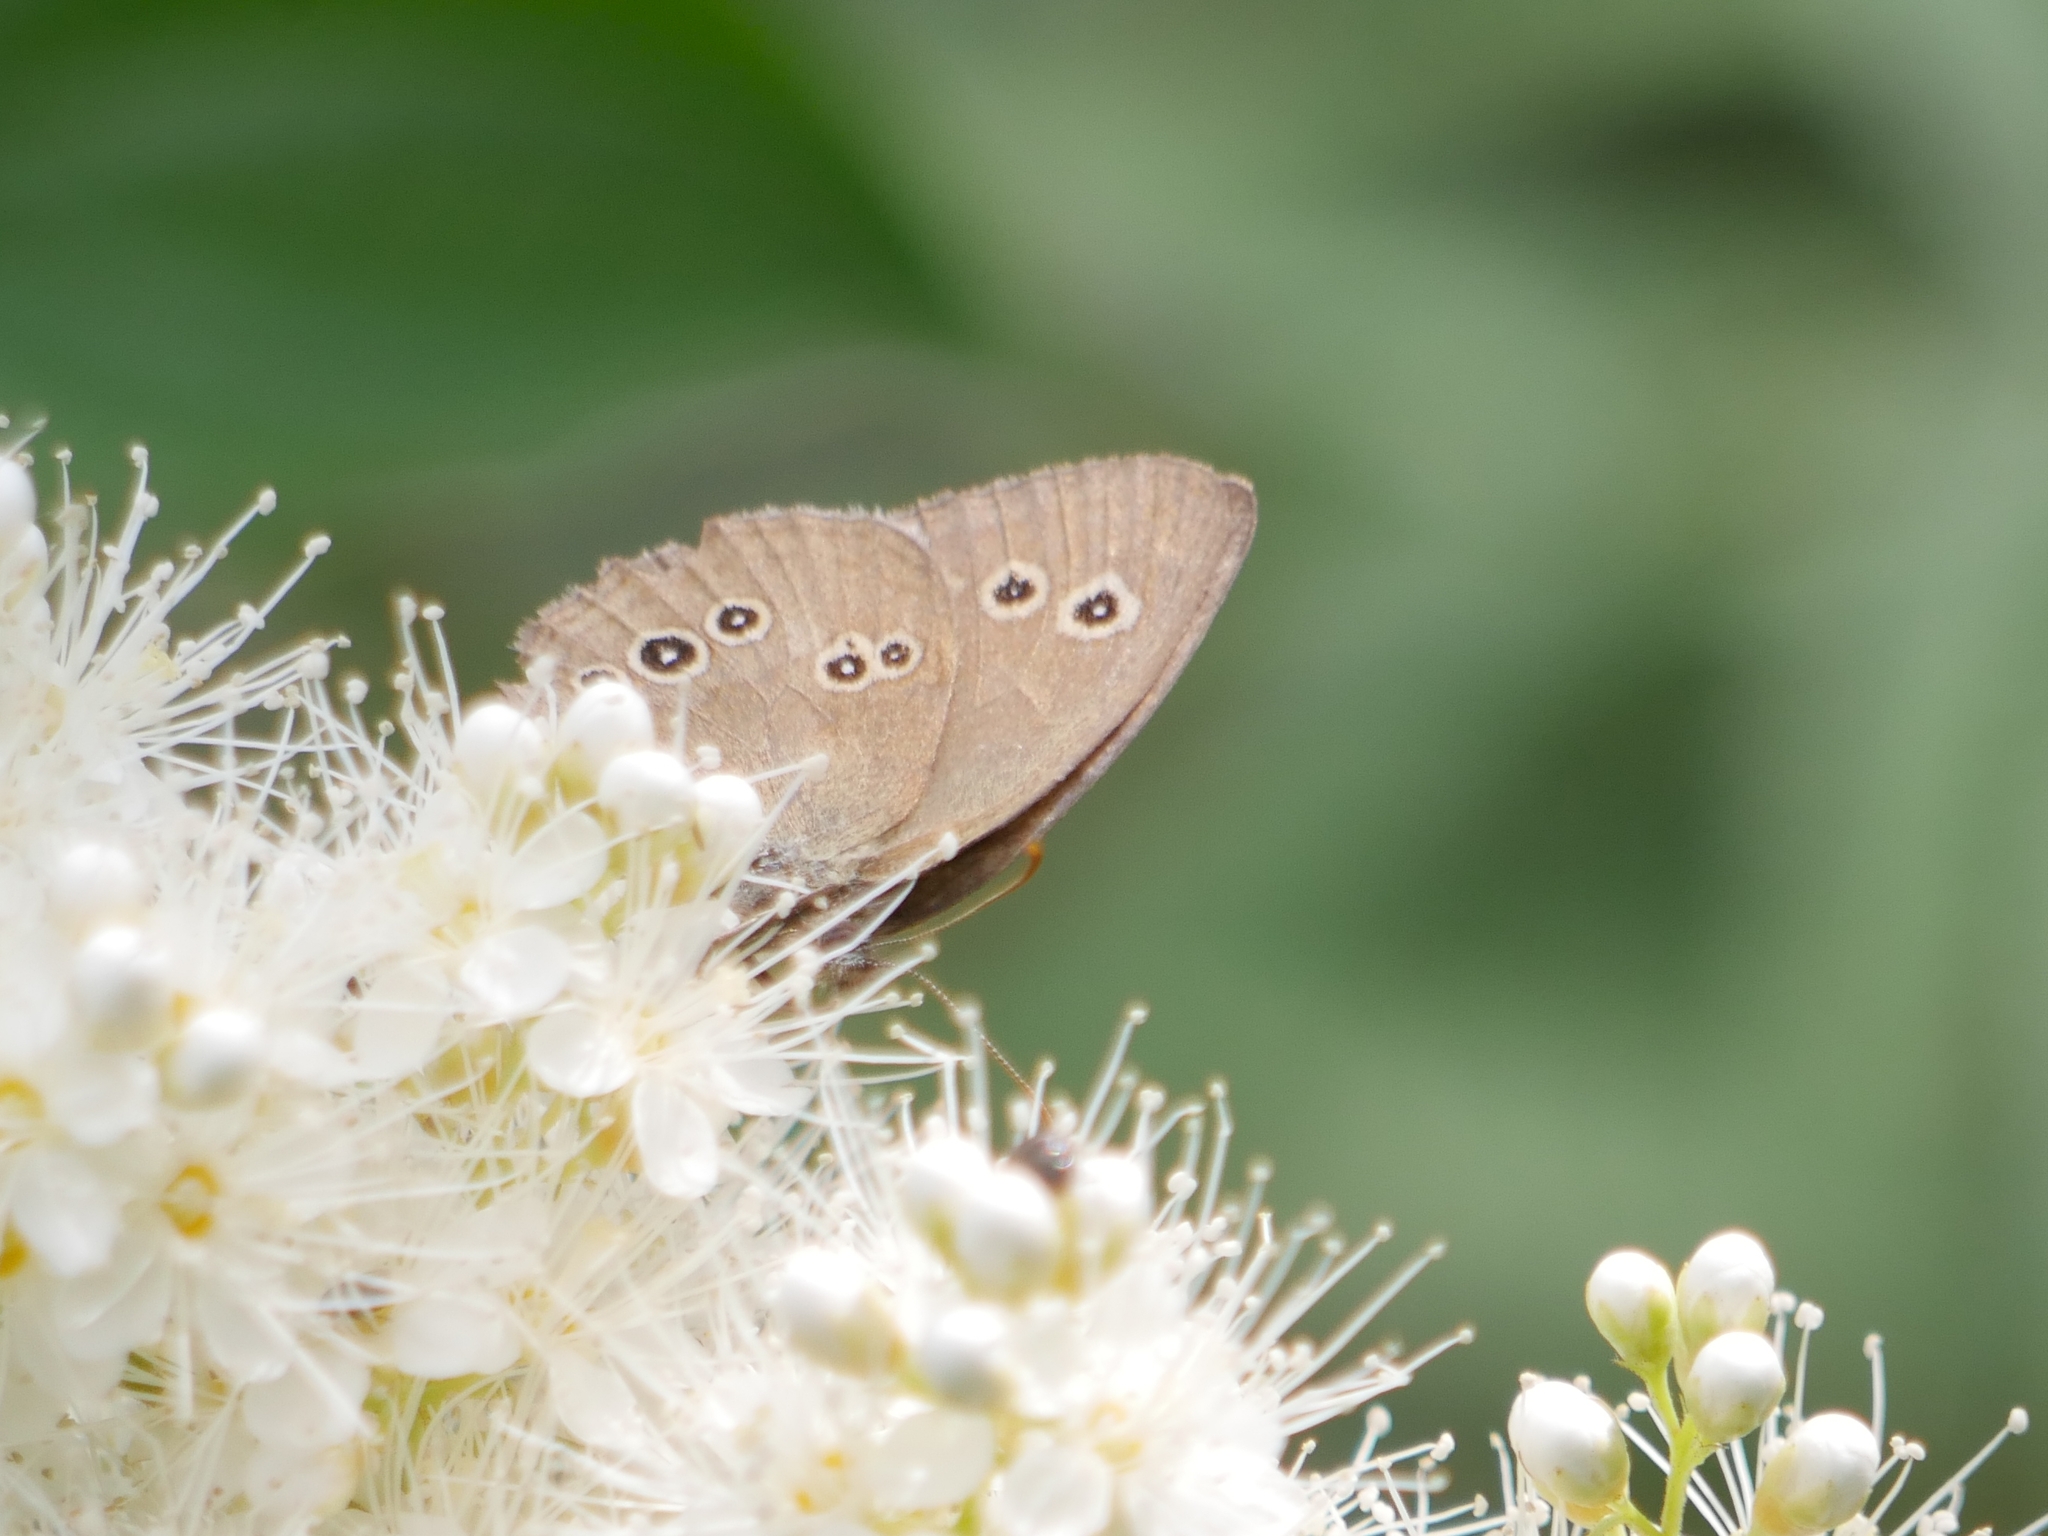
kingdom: Animalia
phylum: Arthropoda
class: Insecta
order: Lepidoptera
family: Nymphalidae
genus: Aphantopus
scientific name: Aphantopus hyperantus
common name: Ringlet
